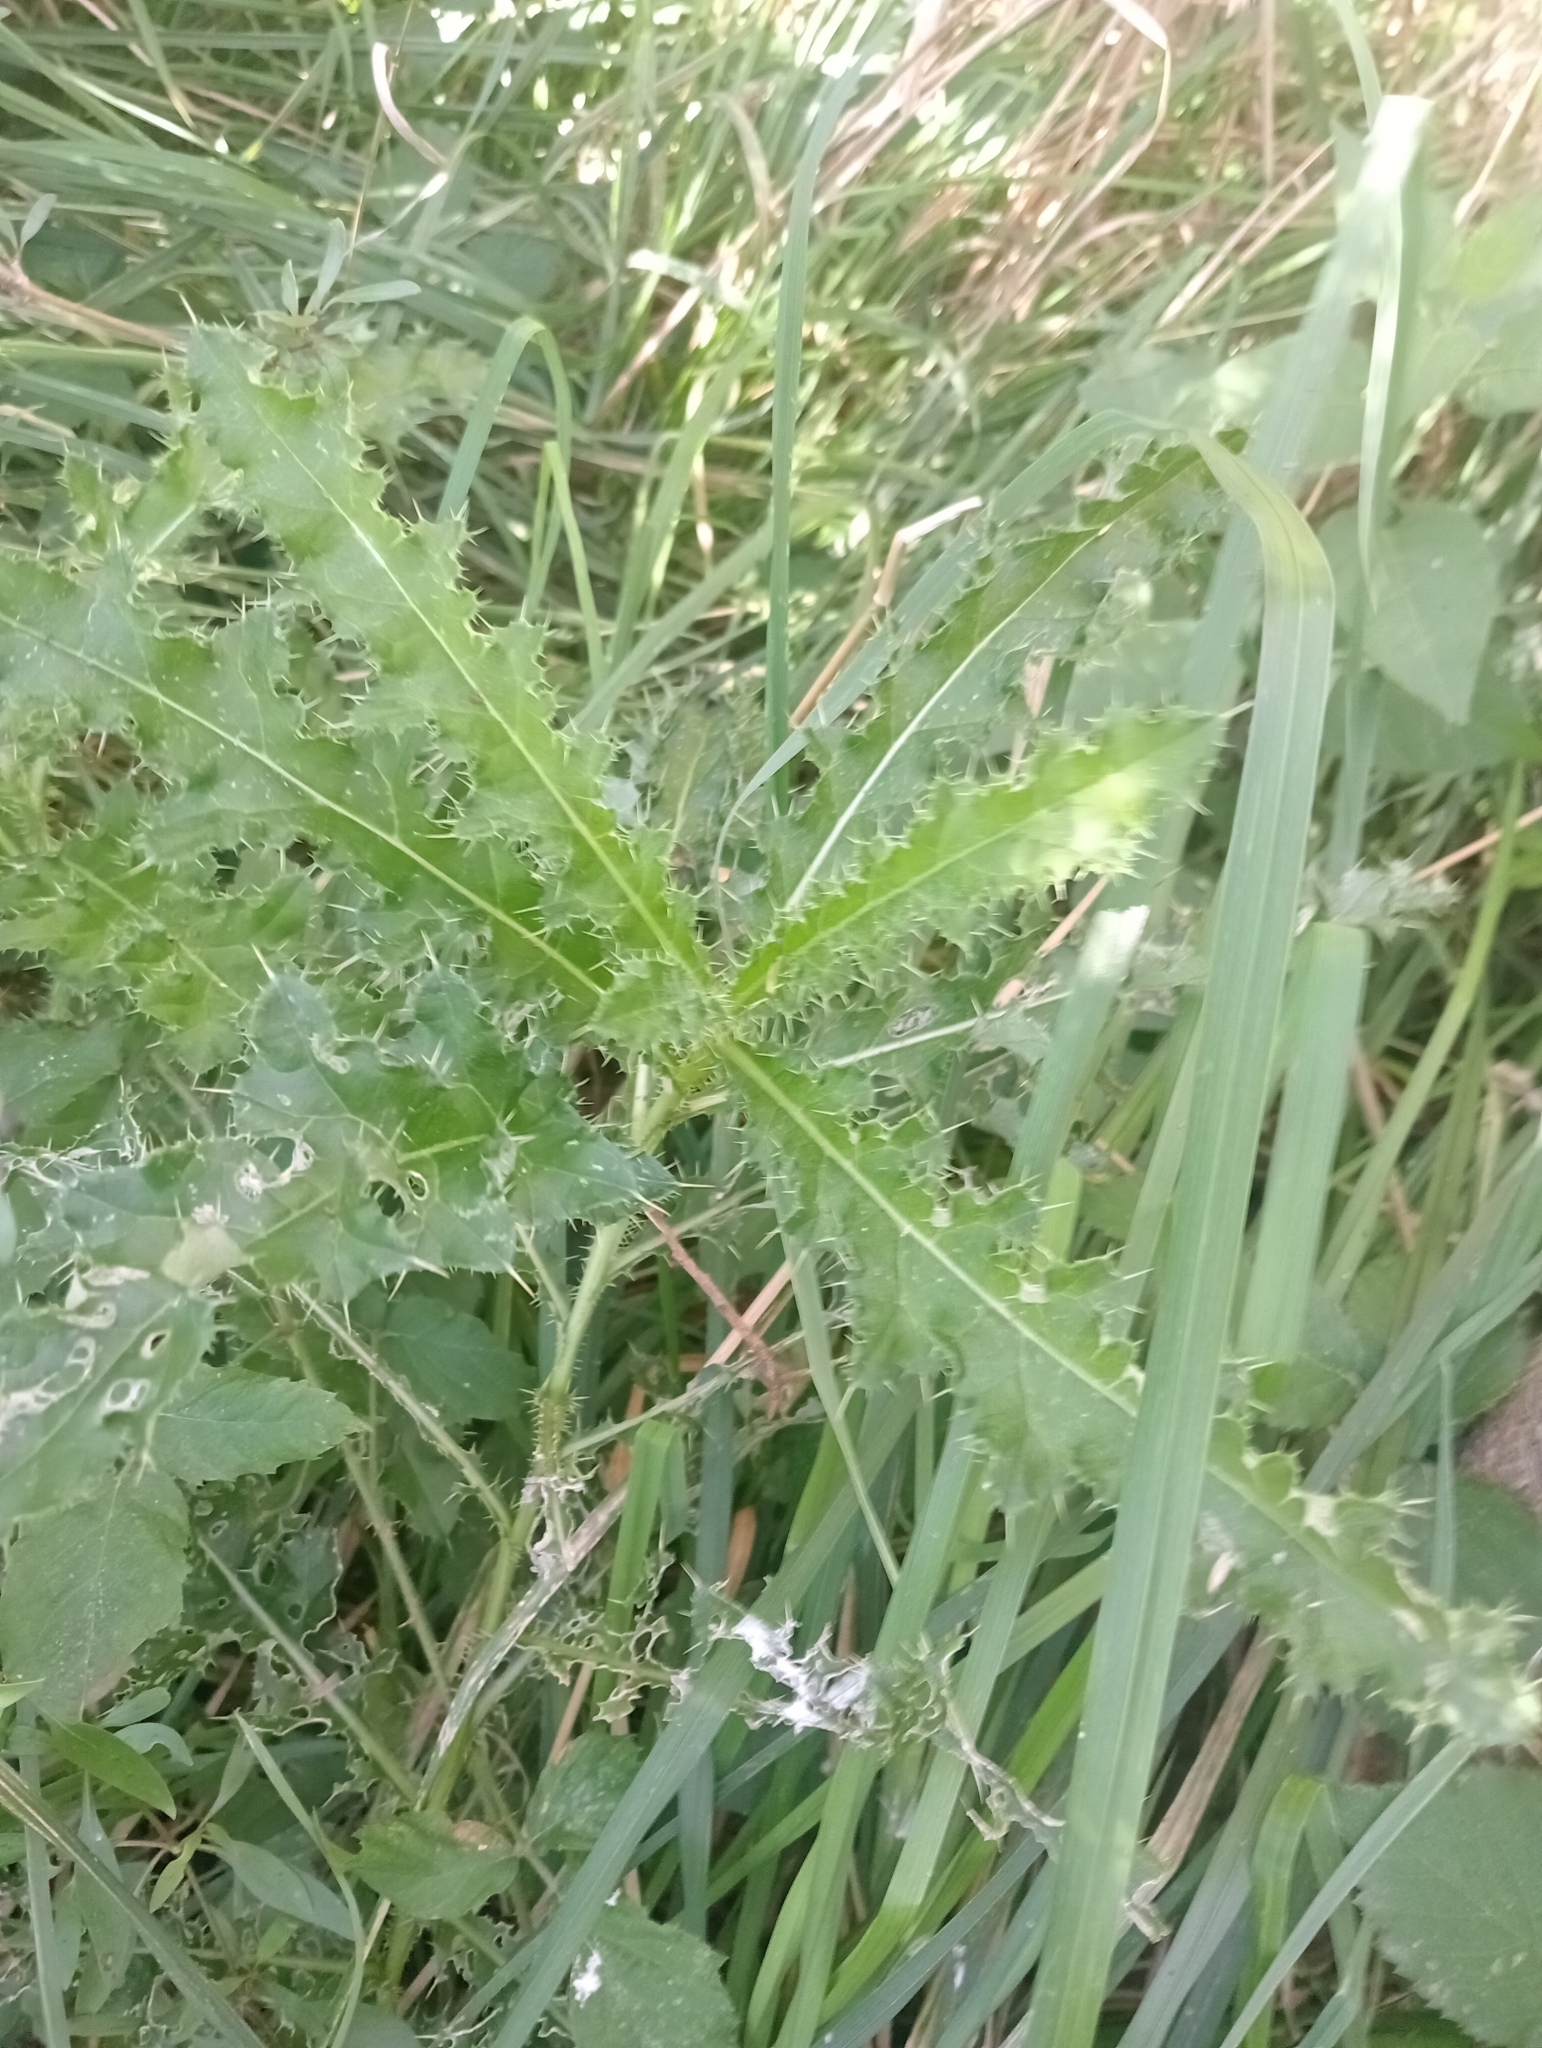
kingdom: Plantae
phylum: Tracheophyta
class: Magnoliopsida
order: Asterales
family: Asteraceae
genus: Cirsium
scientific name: Cirsium arvense
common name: Creeping thistle
